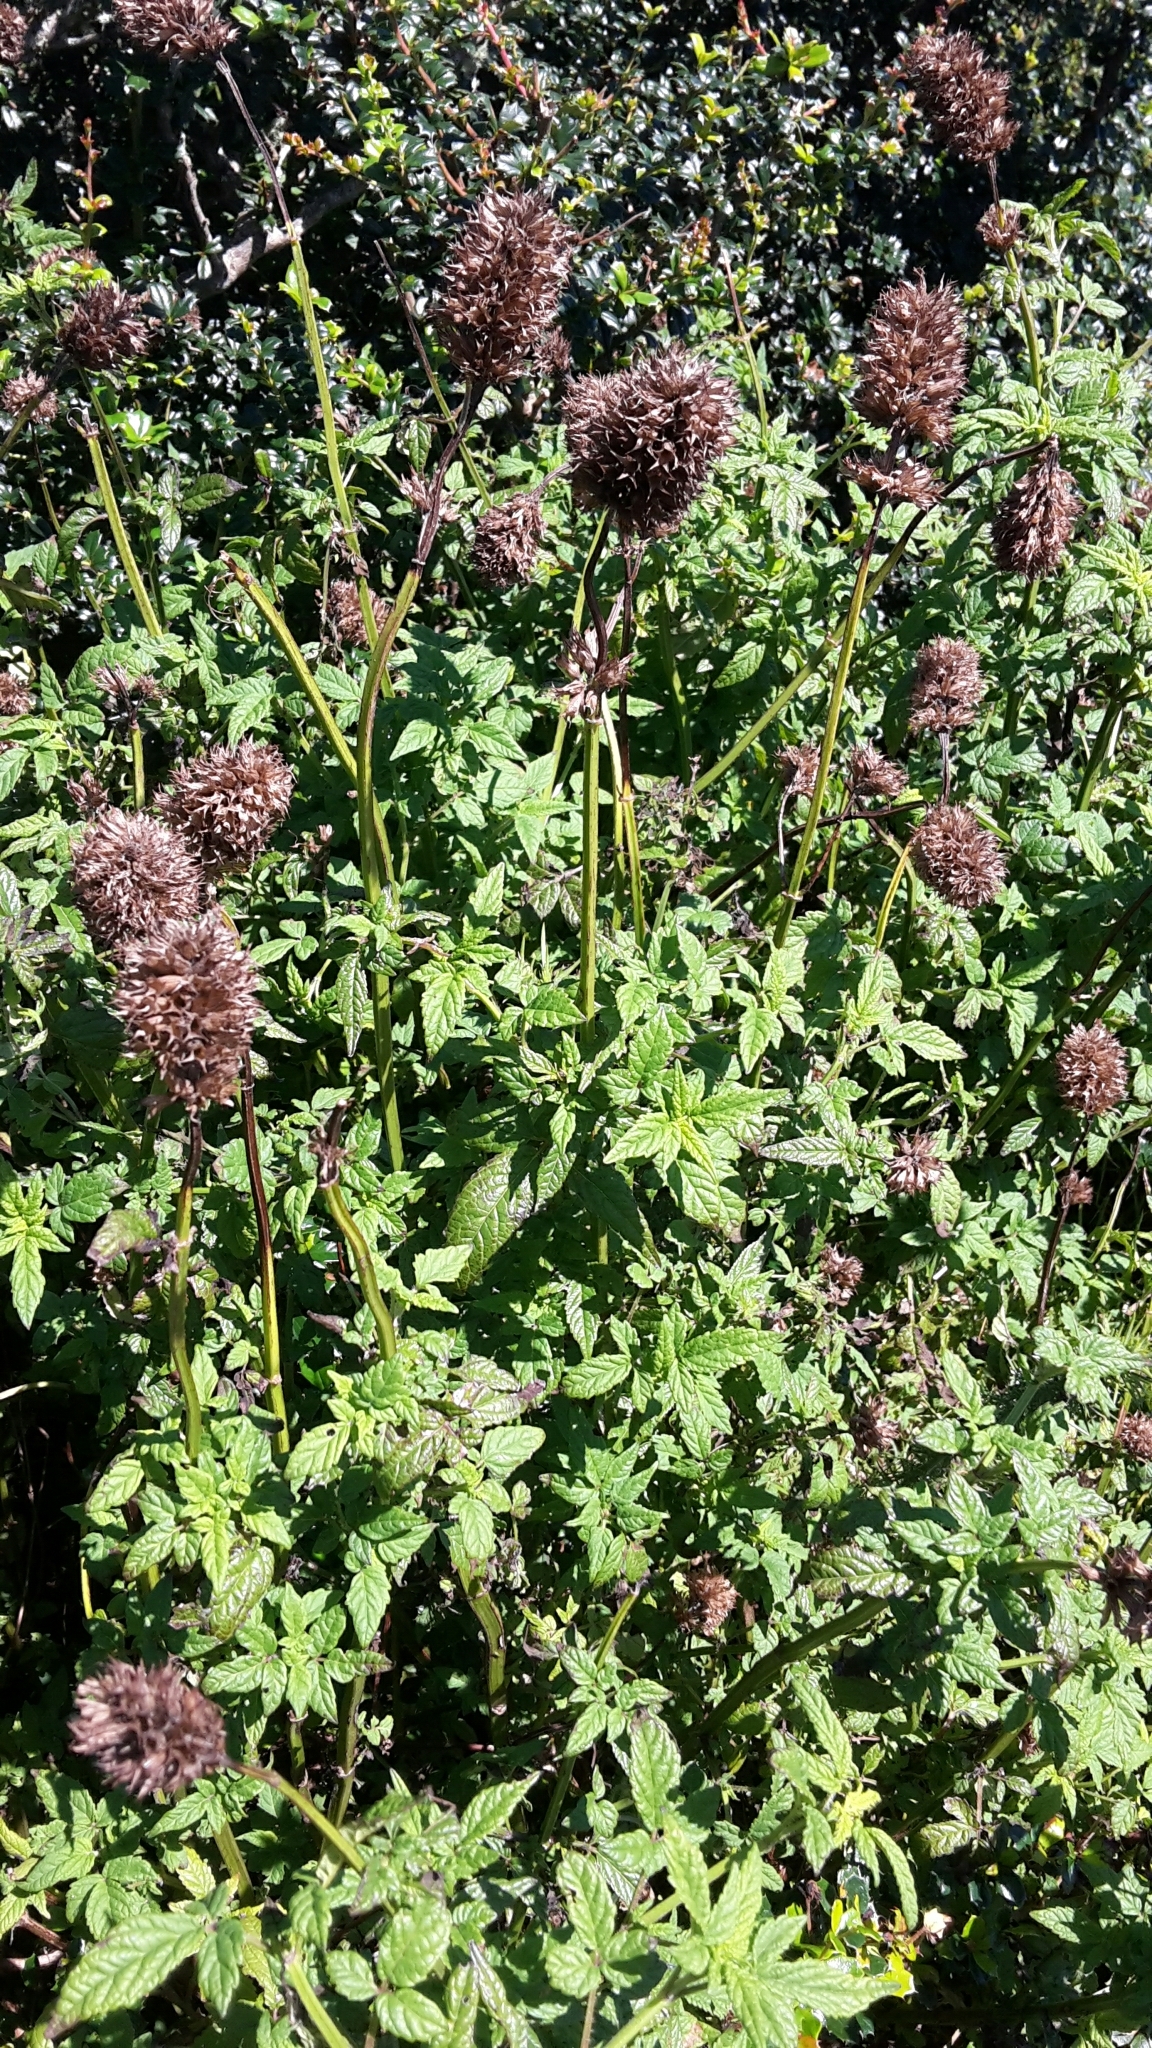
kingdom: Plantae
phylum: Tracheophyta
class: Magnoliopsida
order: Lamiales
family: Lamiaceae
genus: Cedronella
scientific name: Cedronella canariensis
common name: Canary islands balm
